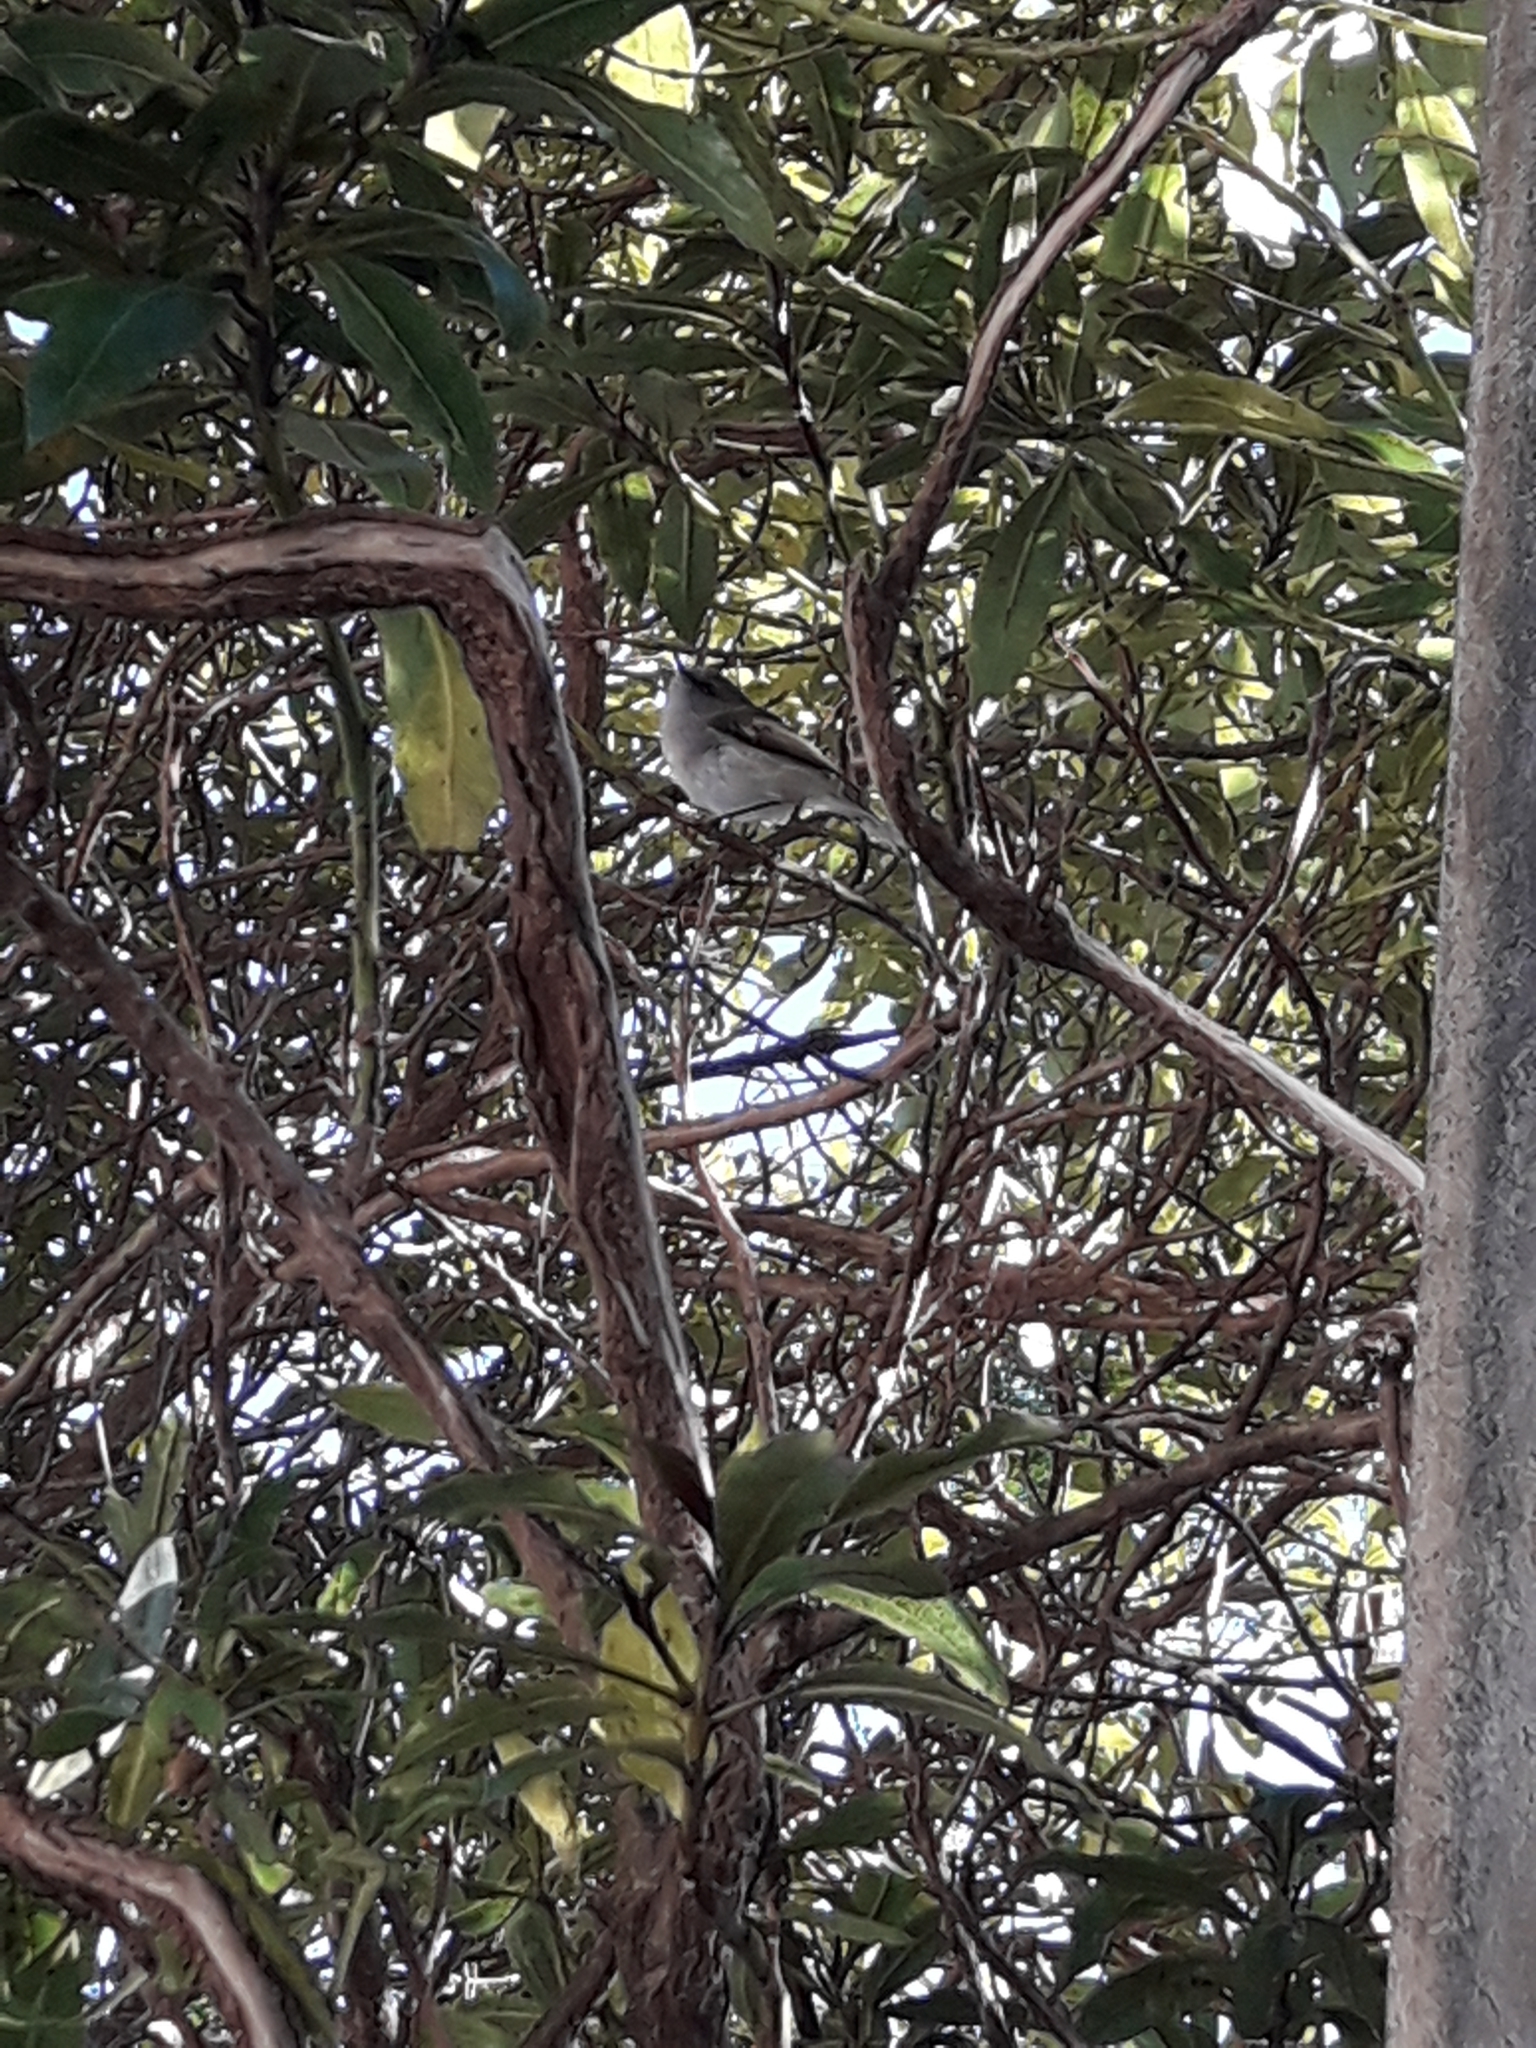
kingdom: Animalia
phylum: Chordata
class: Aves
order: Passeriformes
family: Acanthizidae
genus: Gerygone
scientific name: Gerygone igata
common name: Grey gerygone
